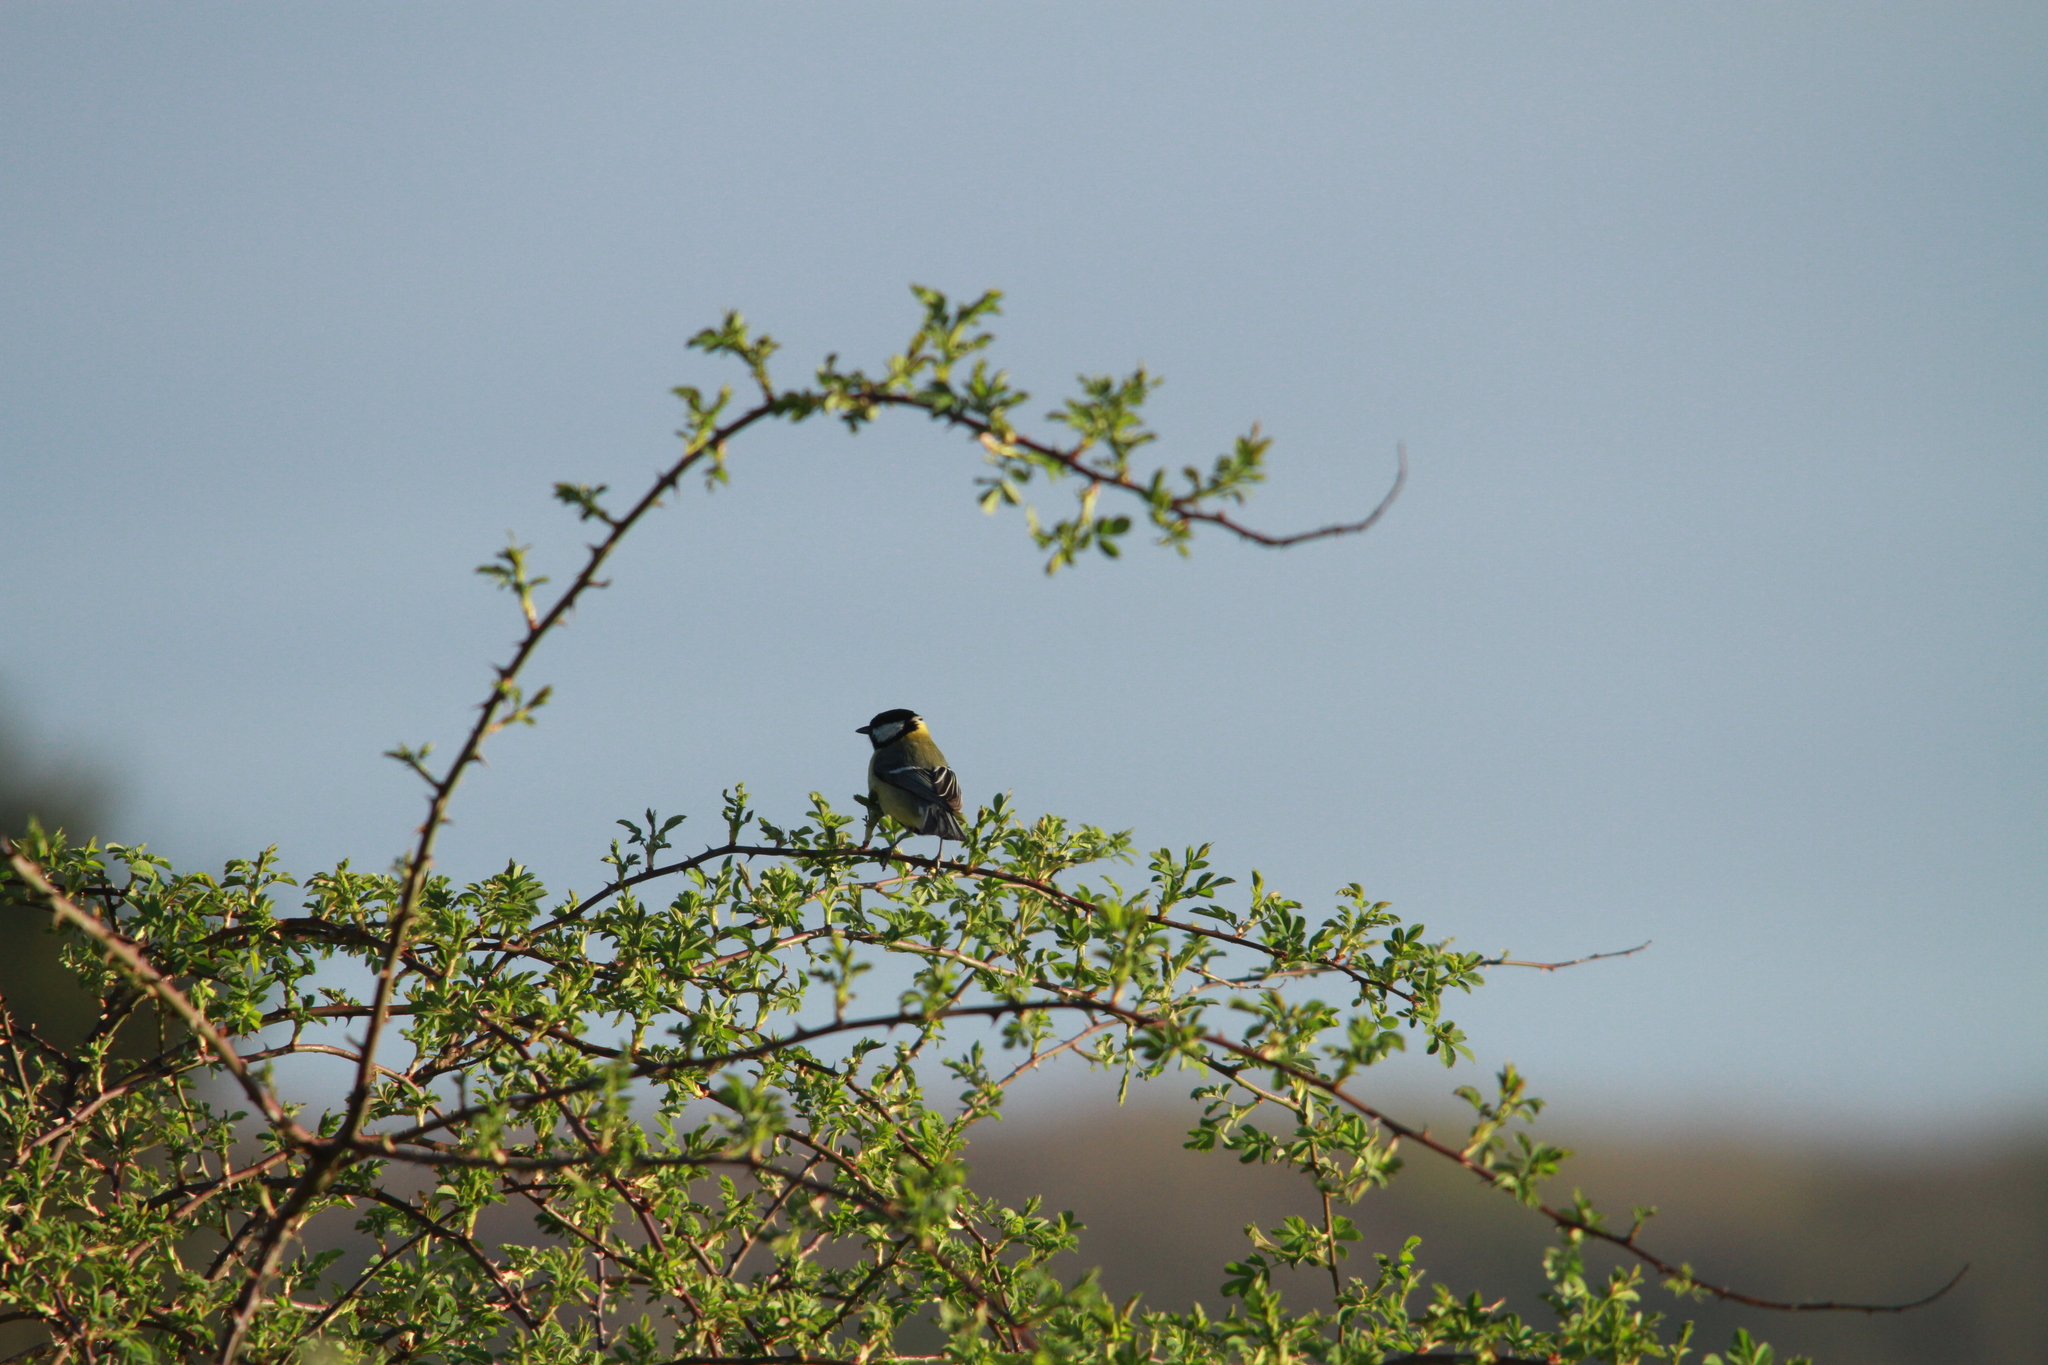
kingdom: Animalia
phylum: Chordata
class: Aves
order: Passeriformes
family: Paridae
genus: Parus
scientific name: Parus major
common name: Great tit
